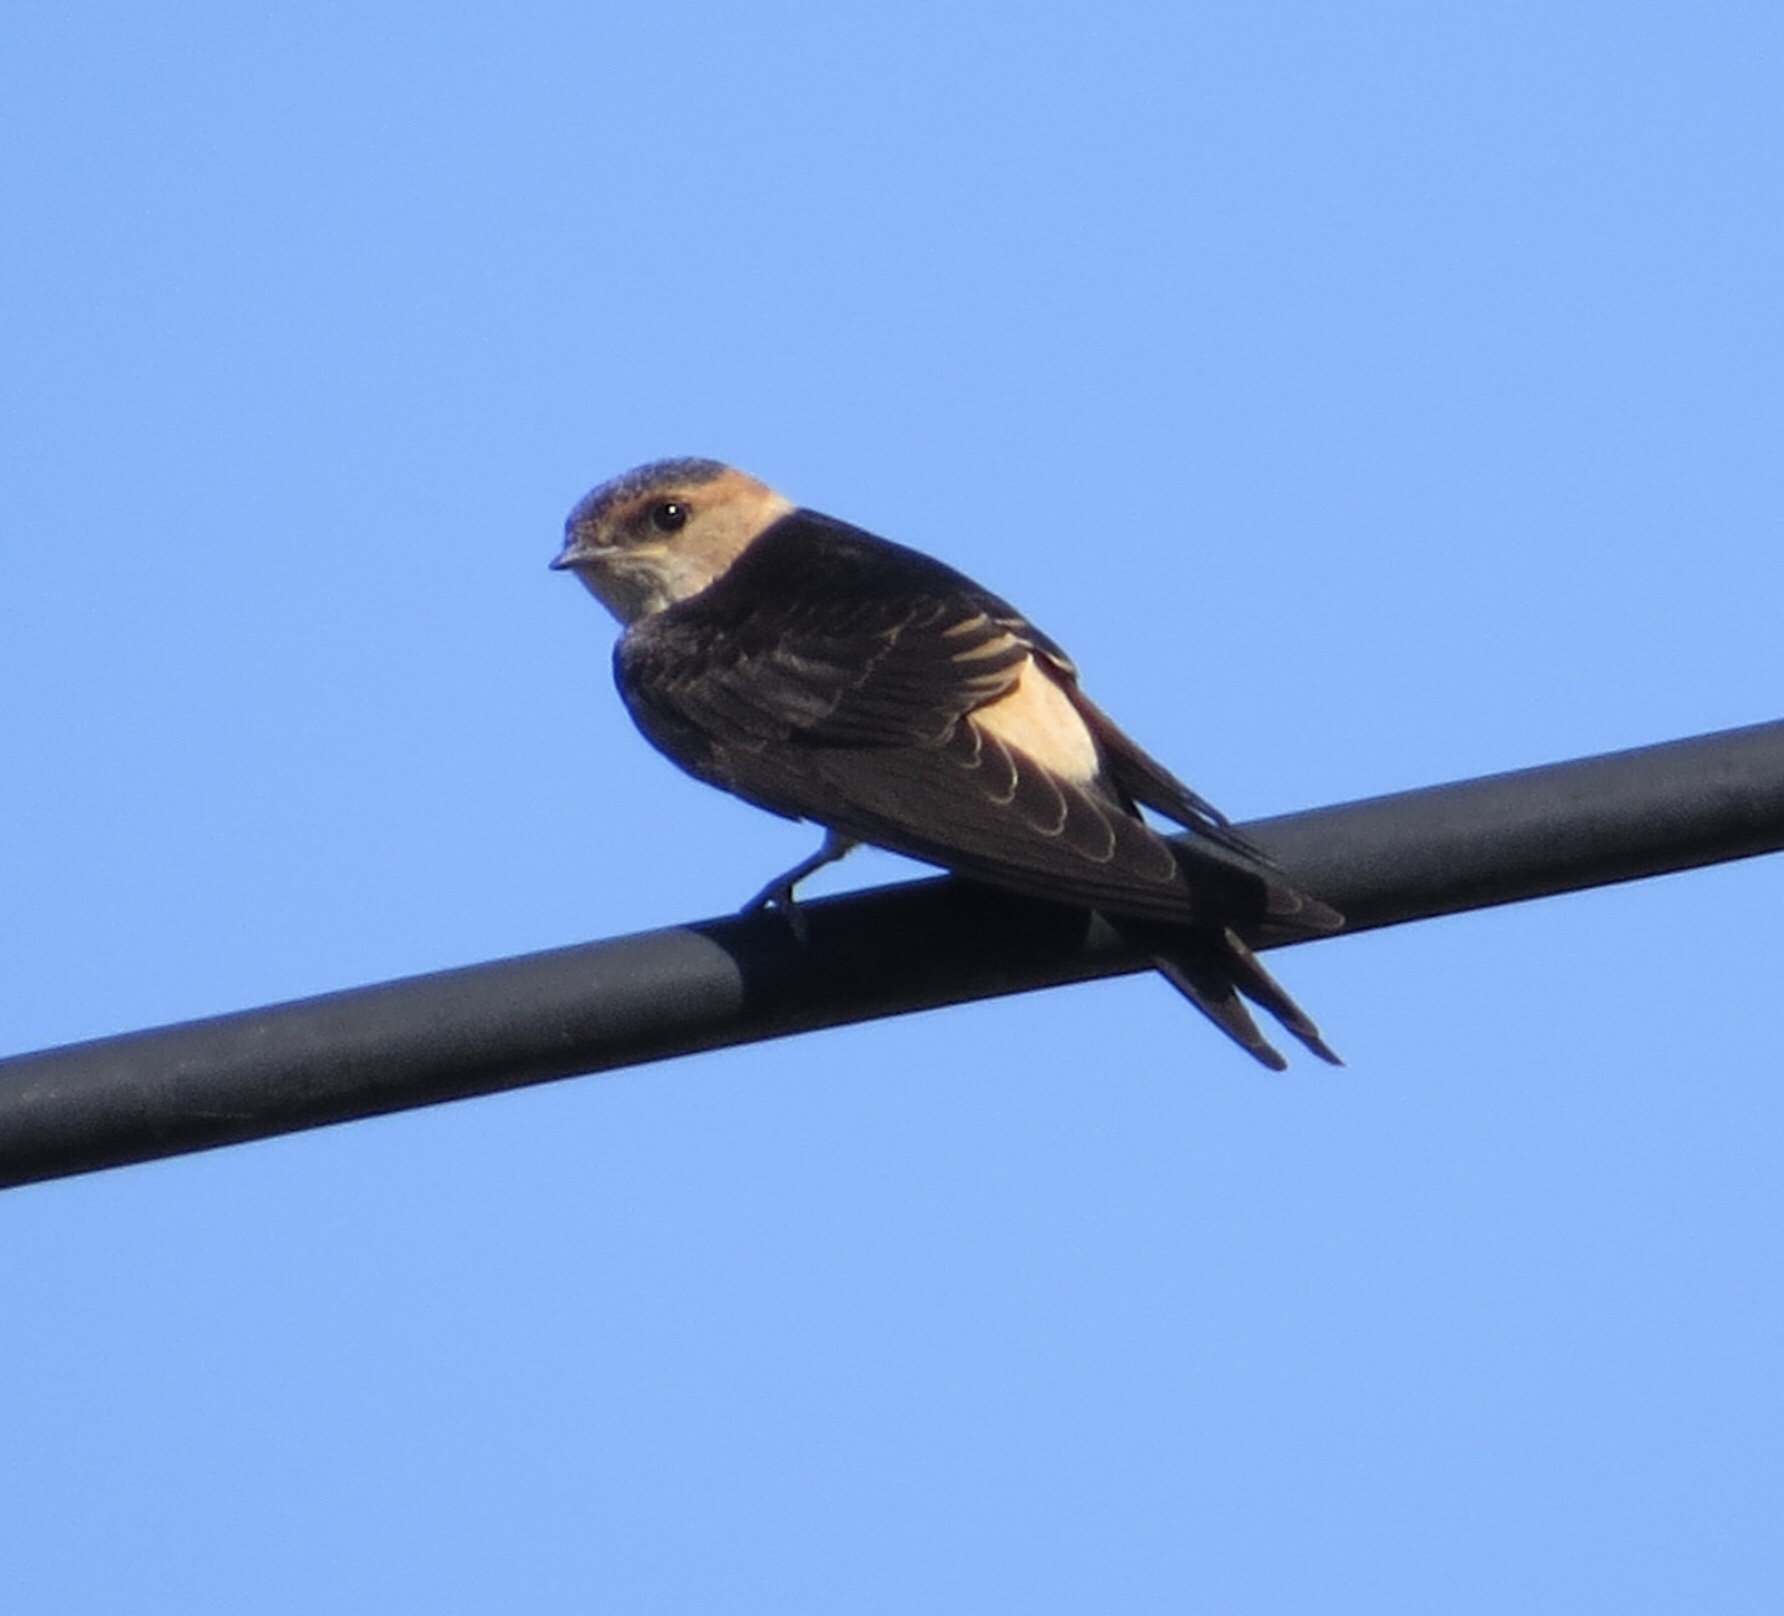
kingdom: Animalia
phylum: Chordata
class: Aves
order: Passeriformes
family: Hirundinidae
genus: Cecropis
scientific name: Cecropis daurica
